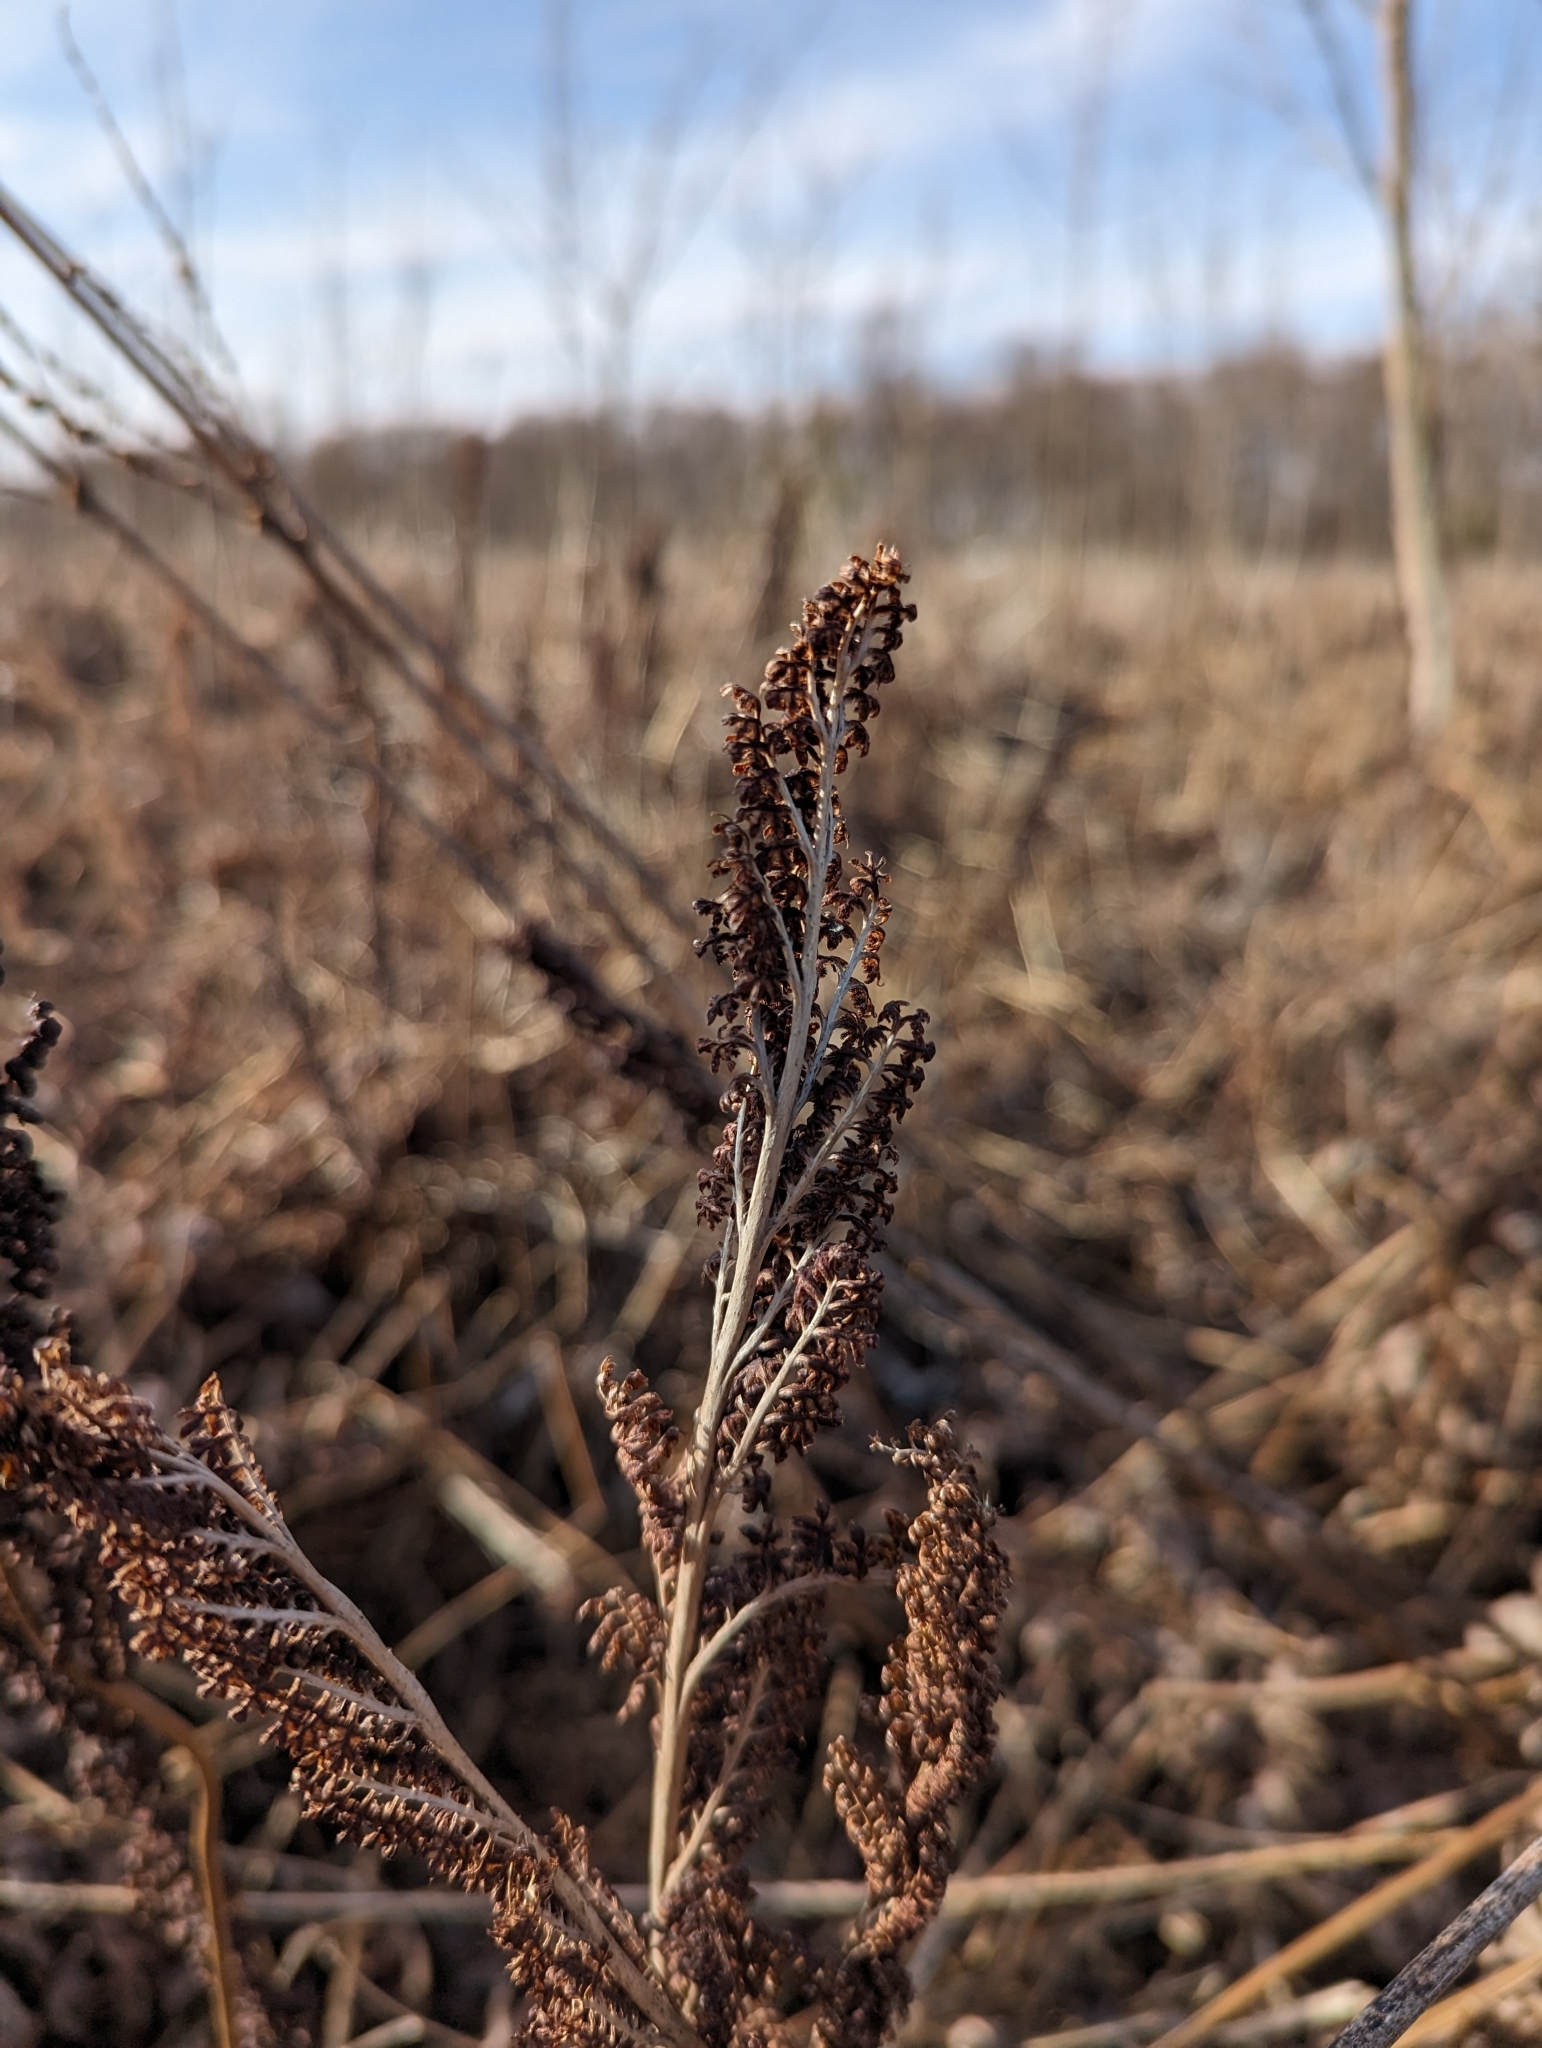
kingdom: Plantae
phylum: Tracheophyta
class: Polypodiopsida
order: Polypodiales
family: Onocleaceae
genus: Onoclea
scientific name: Onoclea sensibilis
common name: Sensitive fern
